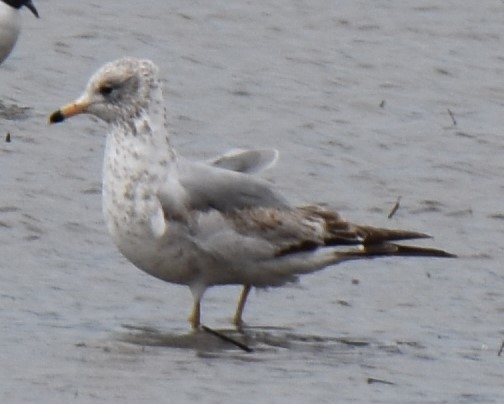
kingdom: Animalia
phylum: Chordata
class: Aves
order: Charadriiformes
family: Laridae
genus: Larus
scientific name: Larus delawarensis
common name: Ring-billed gull
